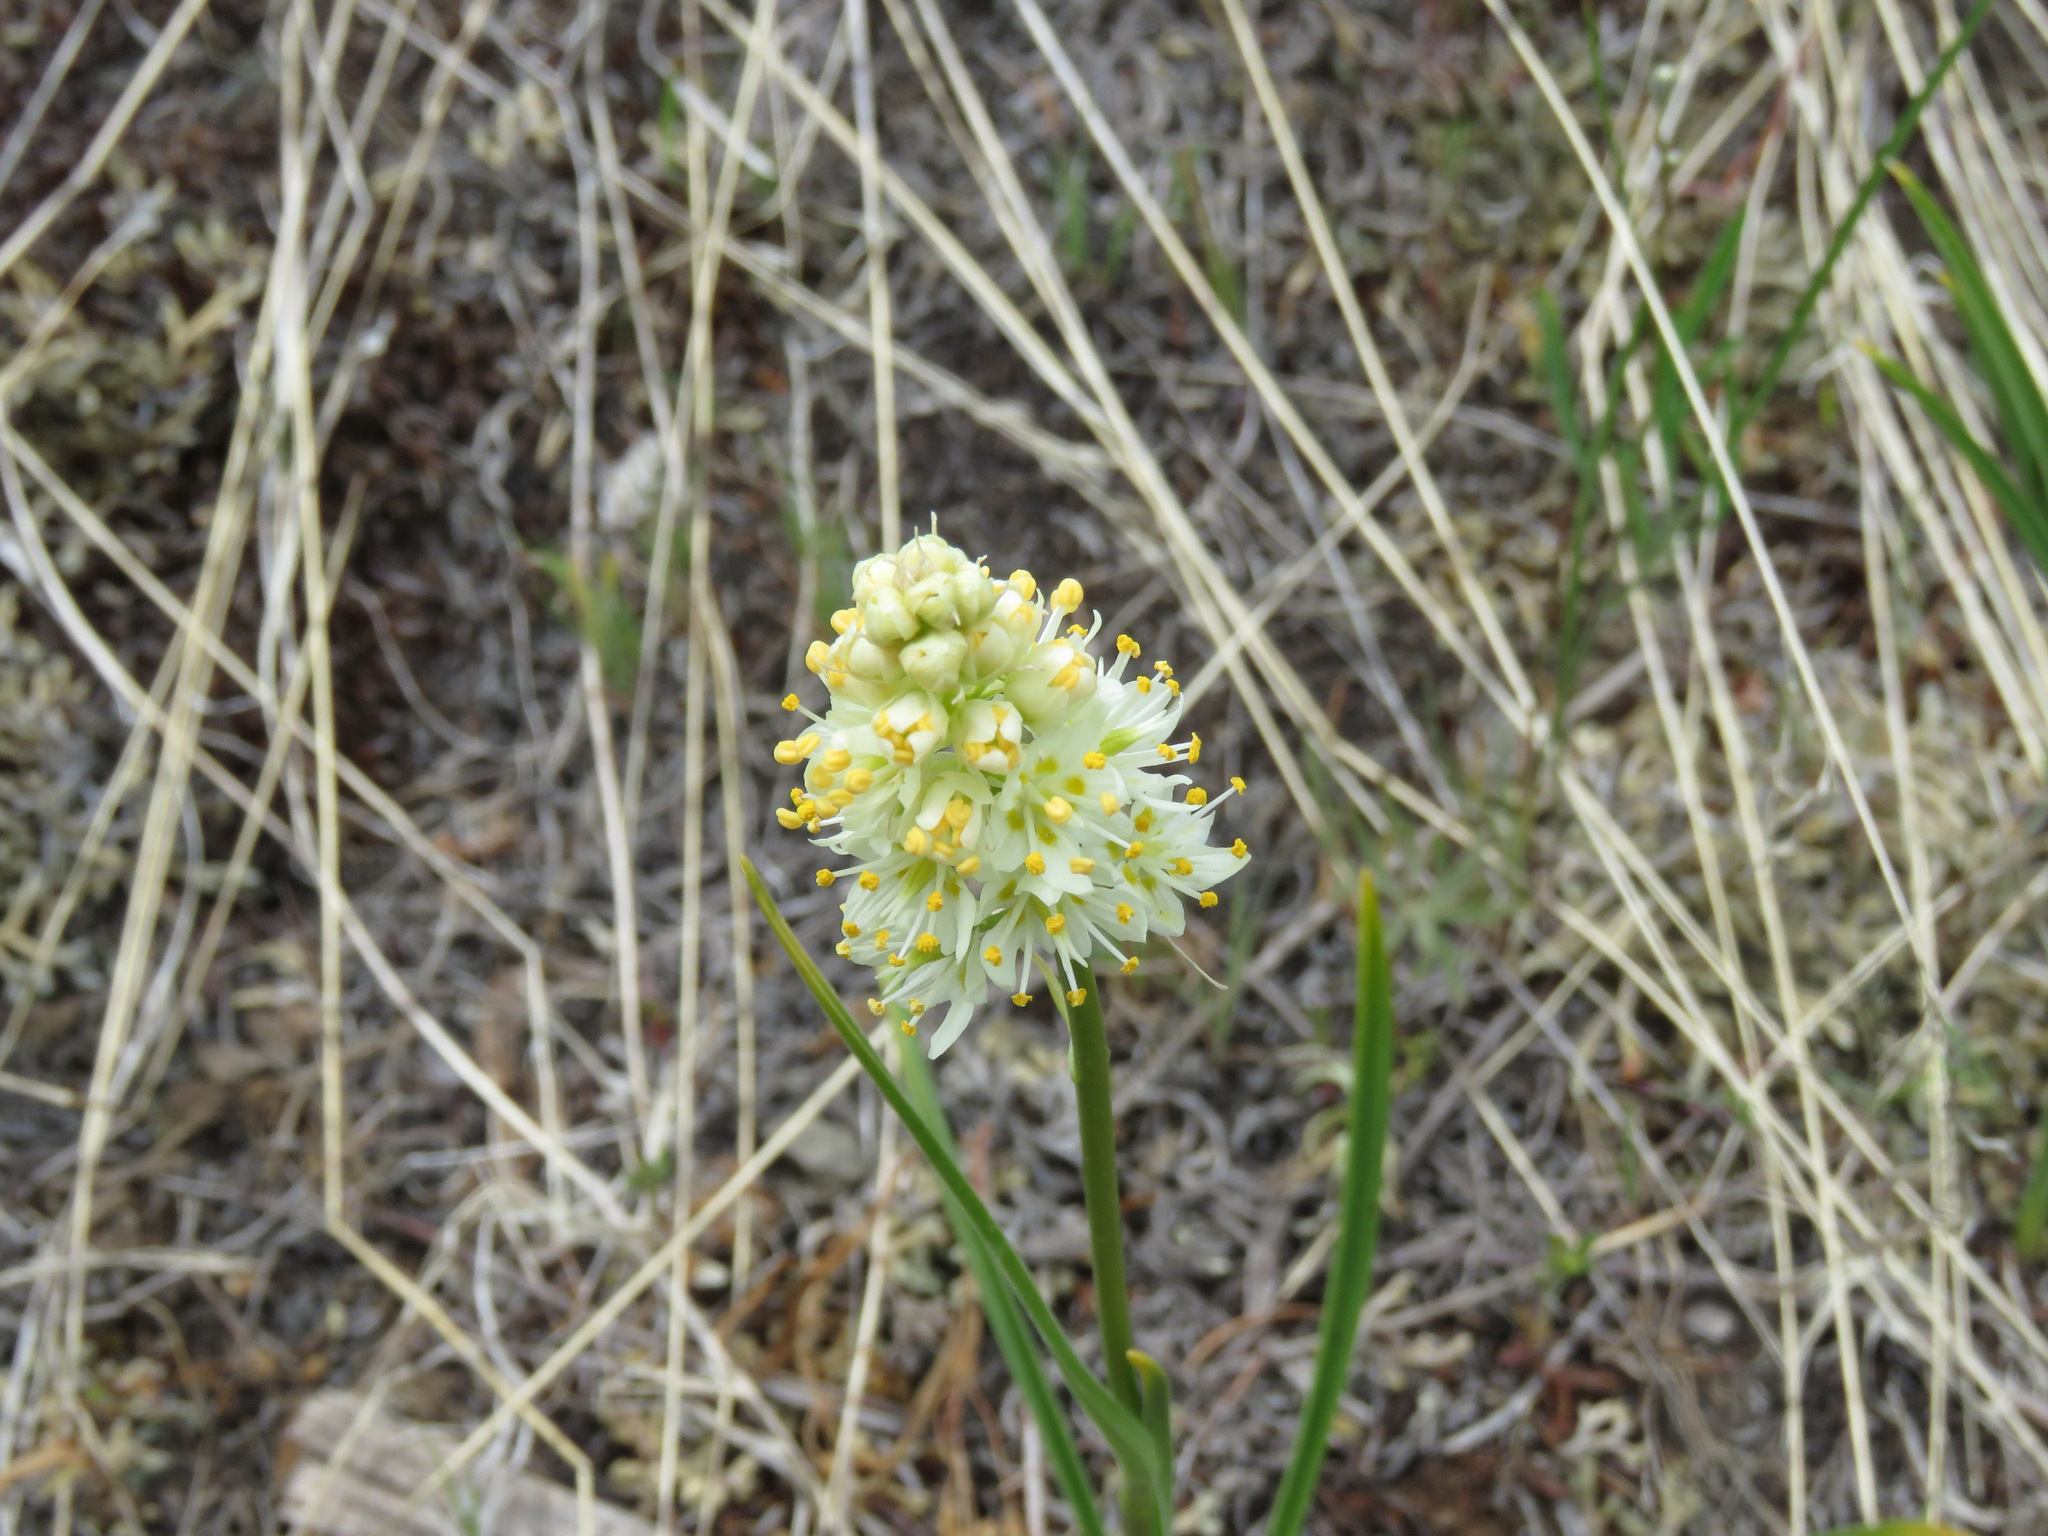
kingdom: Plantae
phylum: Tracheophyta
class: Liliopsida
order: Liliales
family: Melanthiaceae
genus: Toxicoscordion
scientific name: Toxicoscordion venenosum
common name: Meadow death camas
